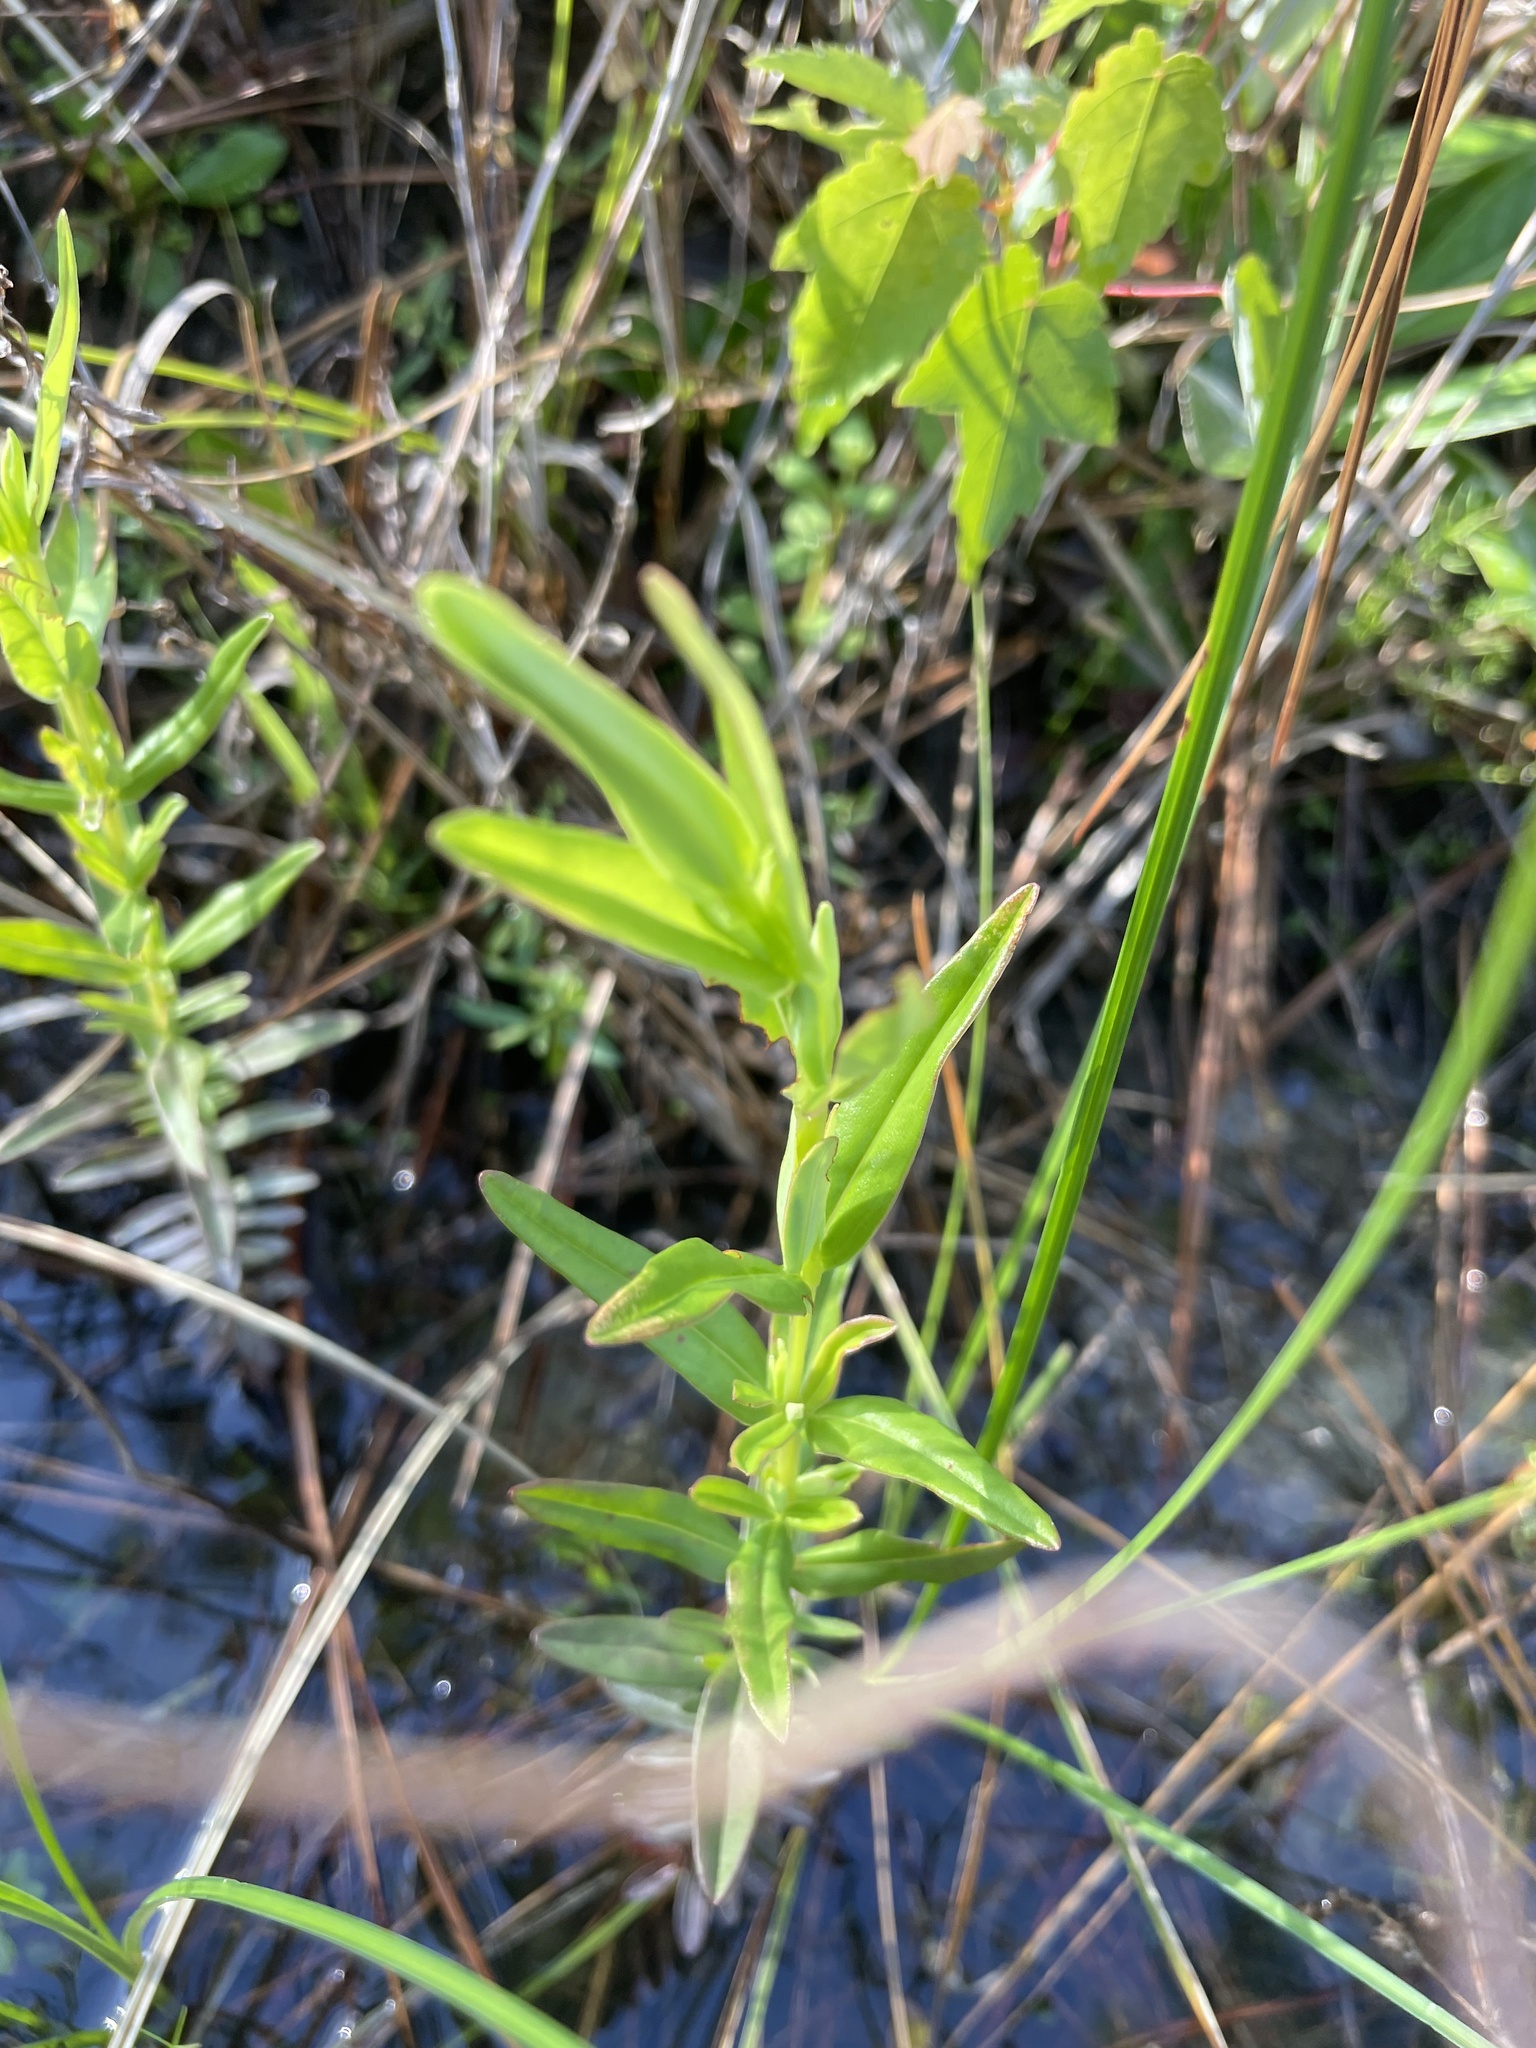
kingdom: Plantae
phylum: Tracheophyta
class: Magnoliopsida
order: Malpighiales
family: Hypericaceae
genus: Hypericum
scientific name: Hypericum cistifolium
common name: Round-pod st. john's-wort
